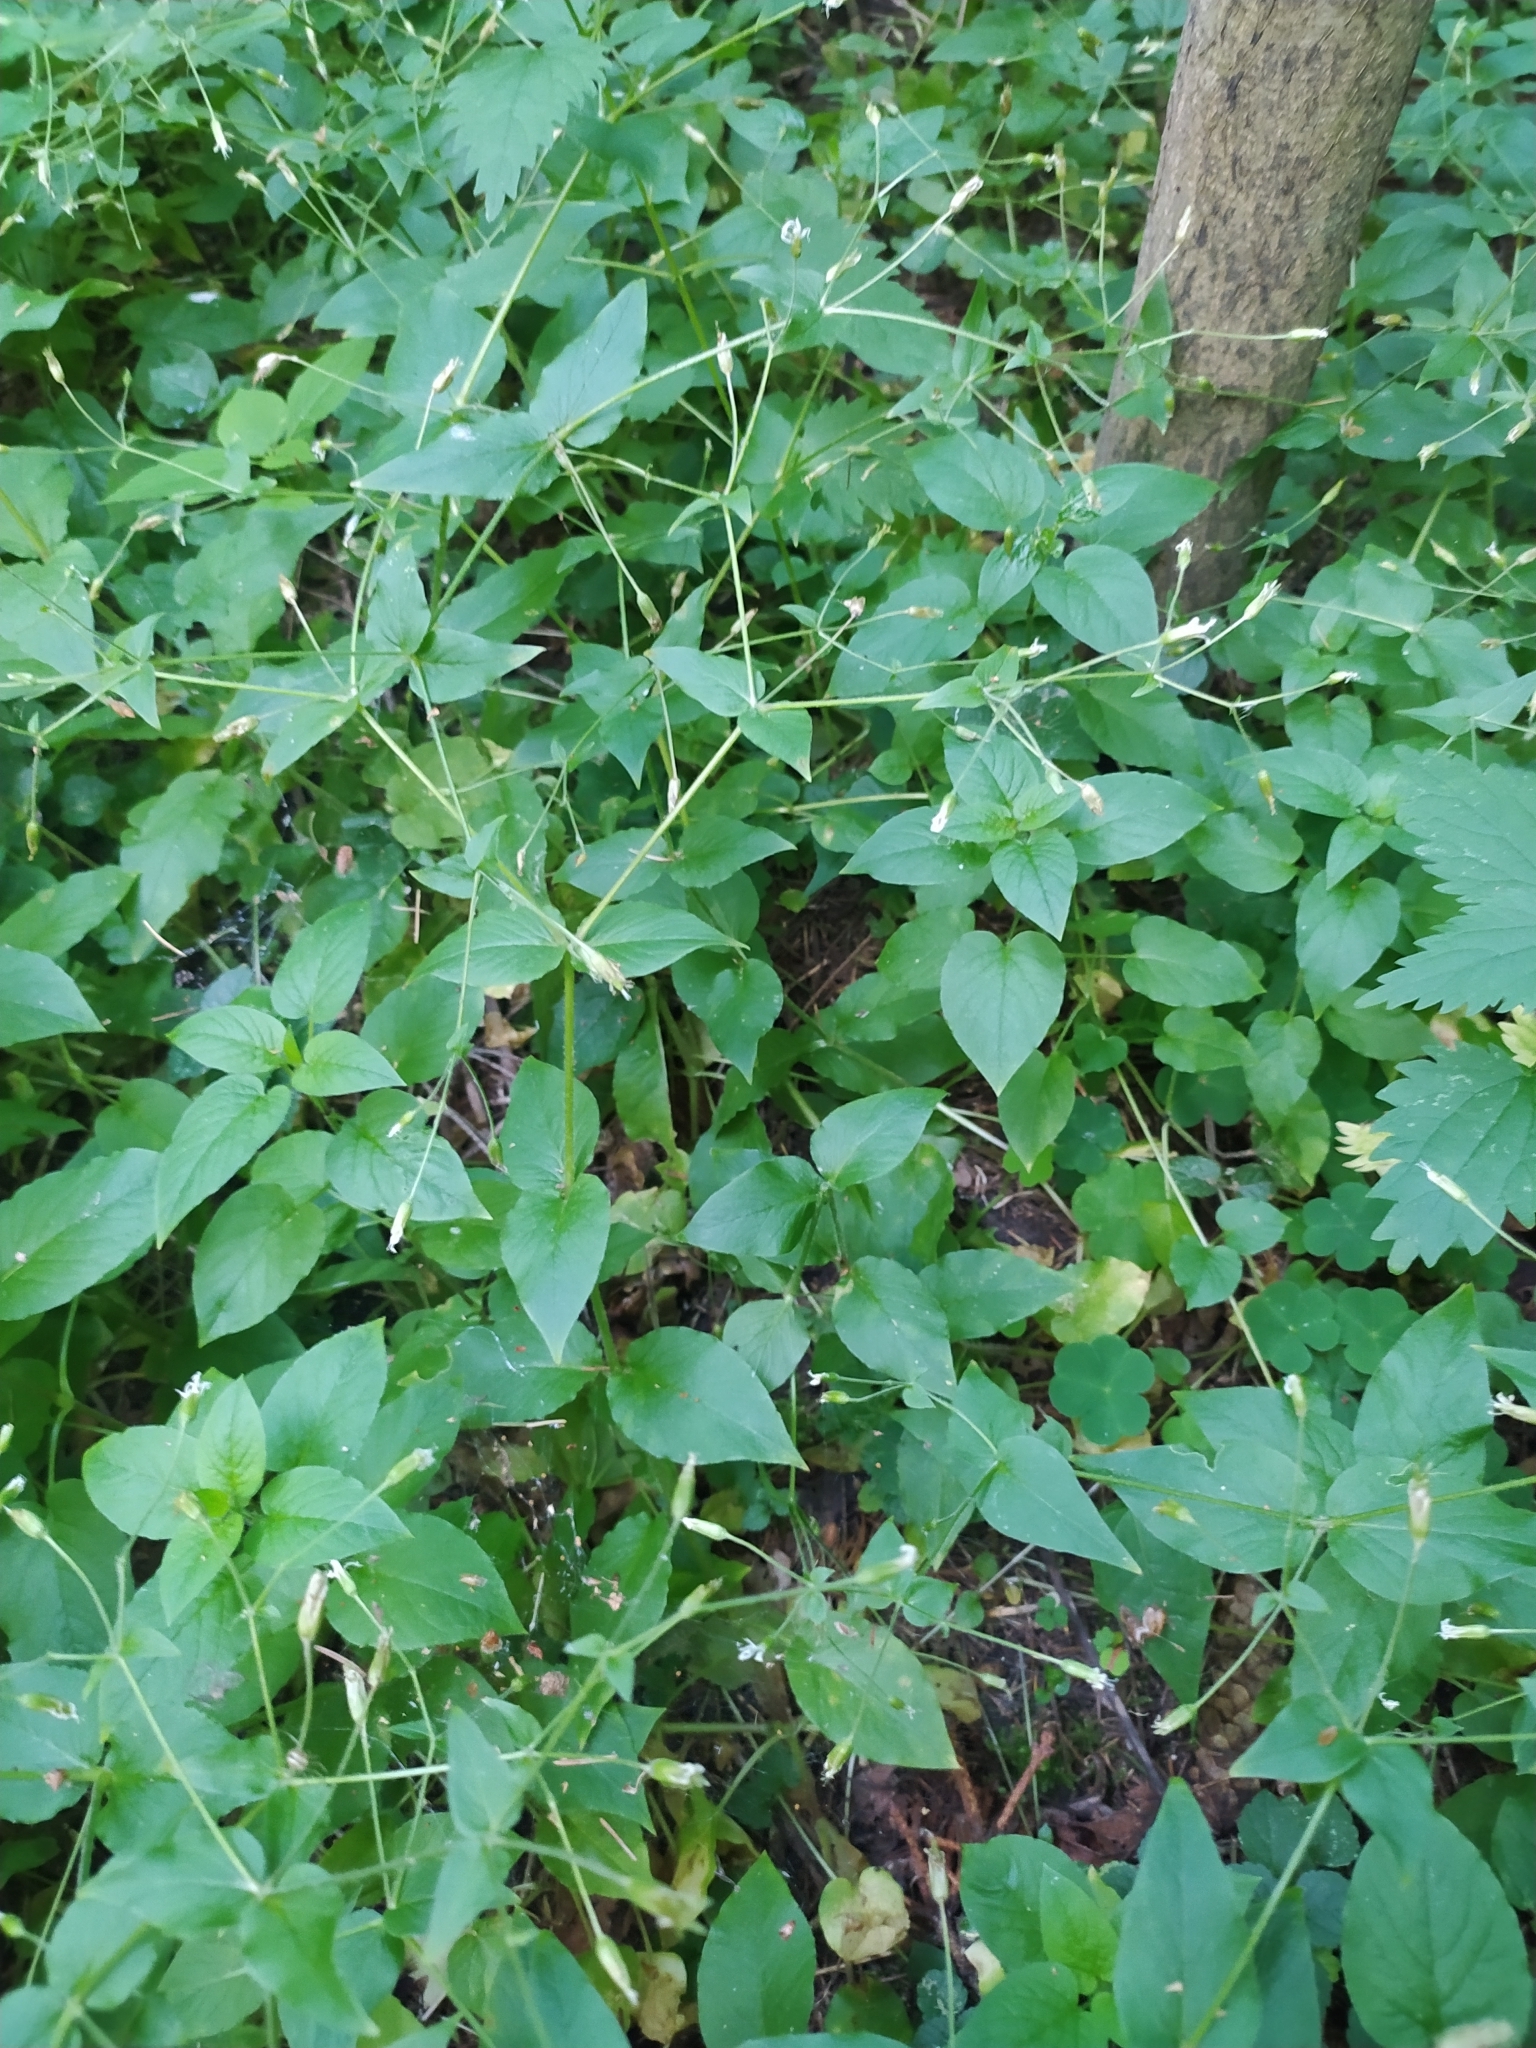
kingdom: Plantae
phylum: Tracheophyta
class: Magnoliopsida
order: Caryophyllales
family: Caryophyllaceae
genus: Stellaria
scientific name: Stellaria nemorum
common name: Wood stitchwort
